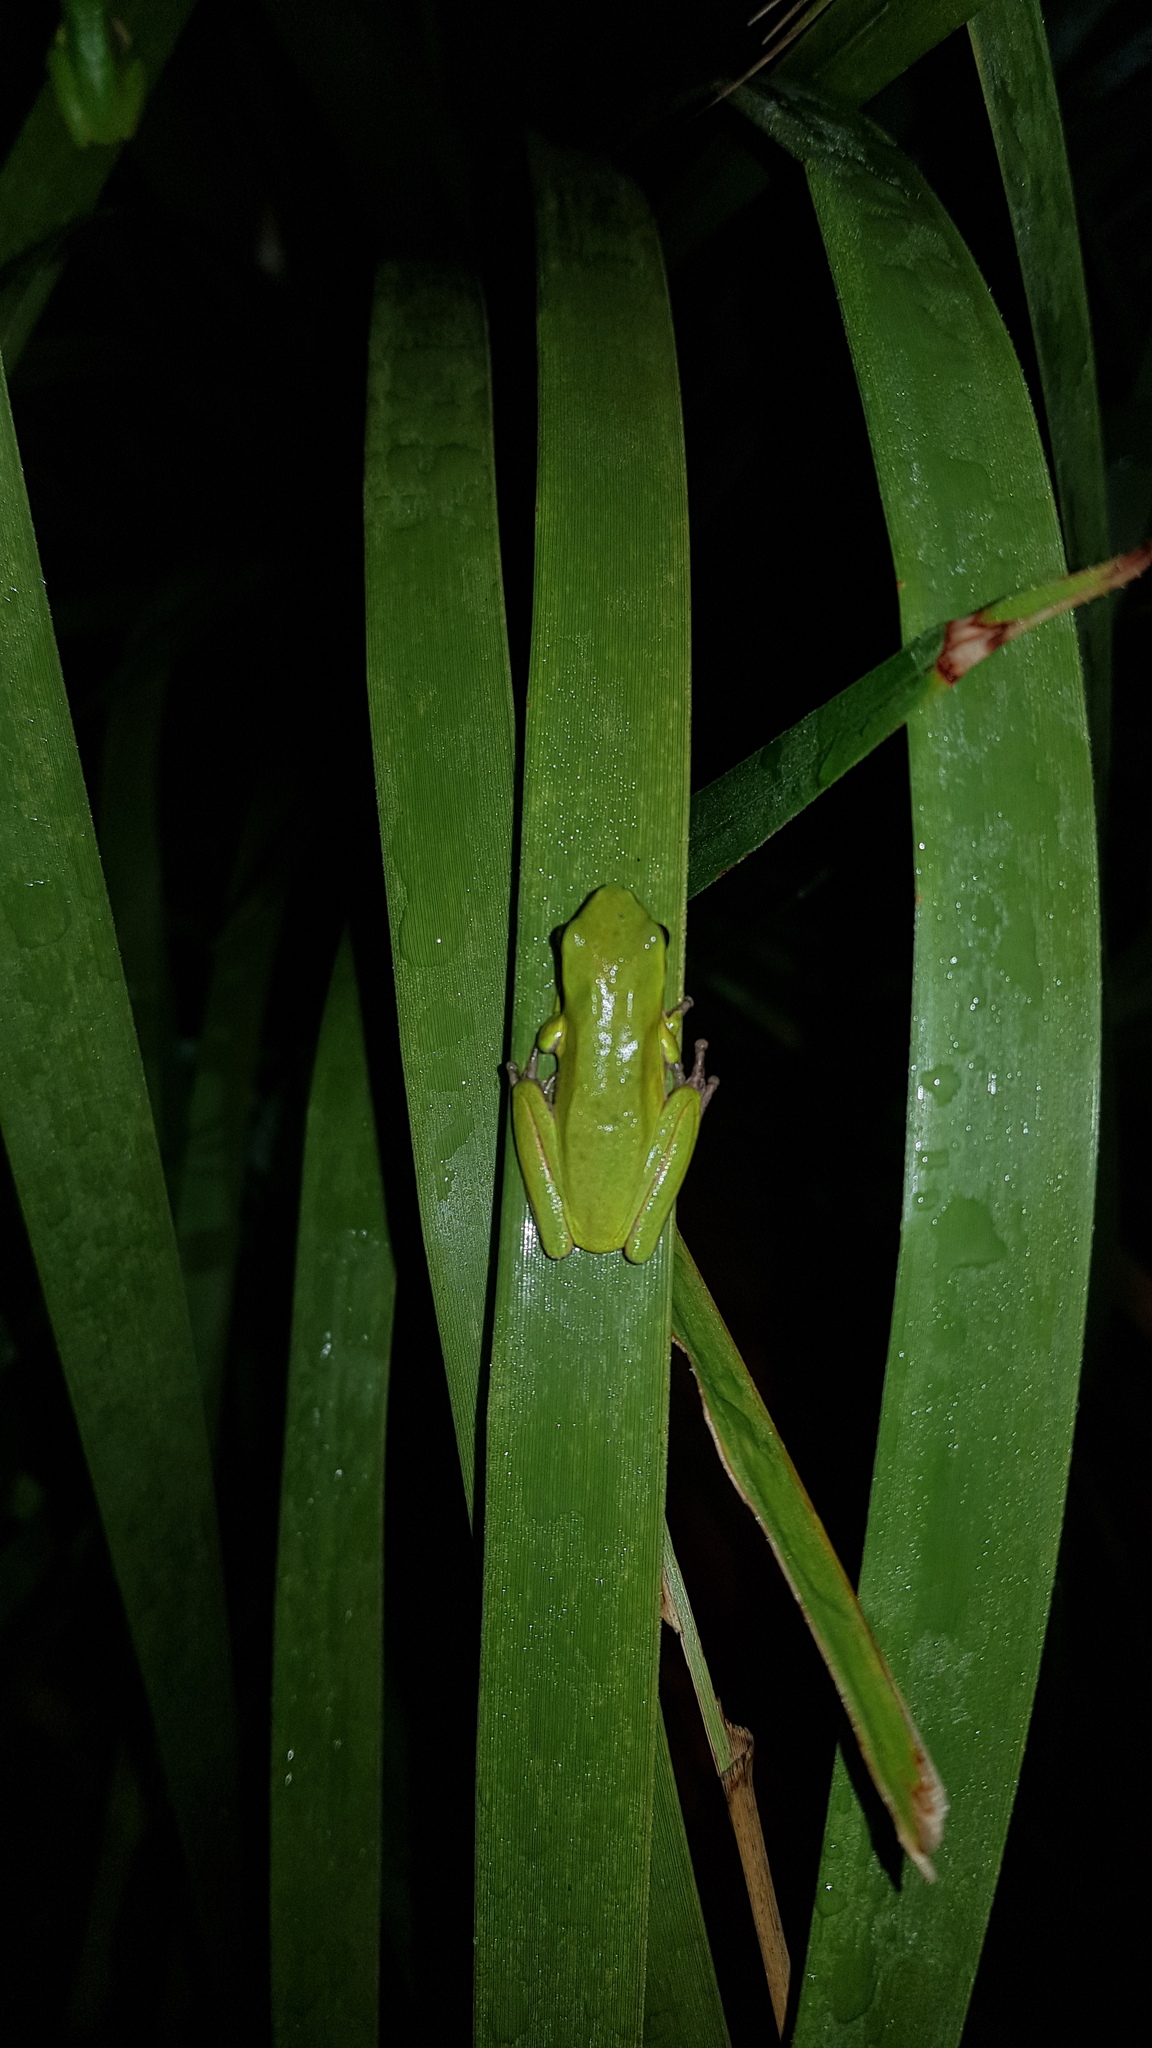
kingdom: Animalia
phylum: Chordata
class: Amphibia
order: Anura
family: Pelodryadidae
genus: Litoria
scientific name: Litoria fallax
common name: Eastern dwarf treefrog
